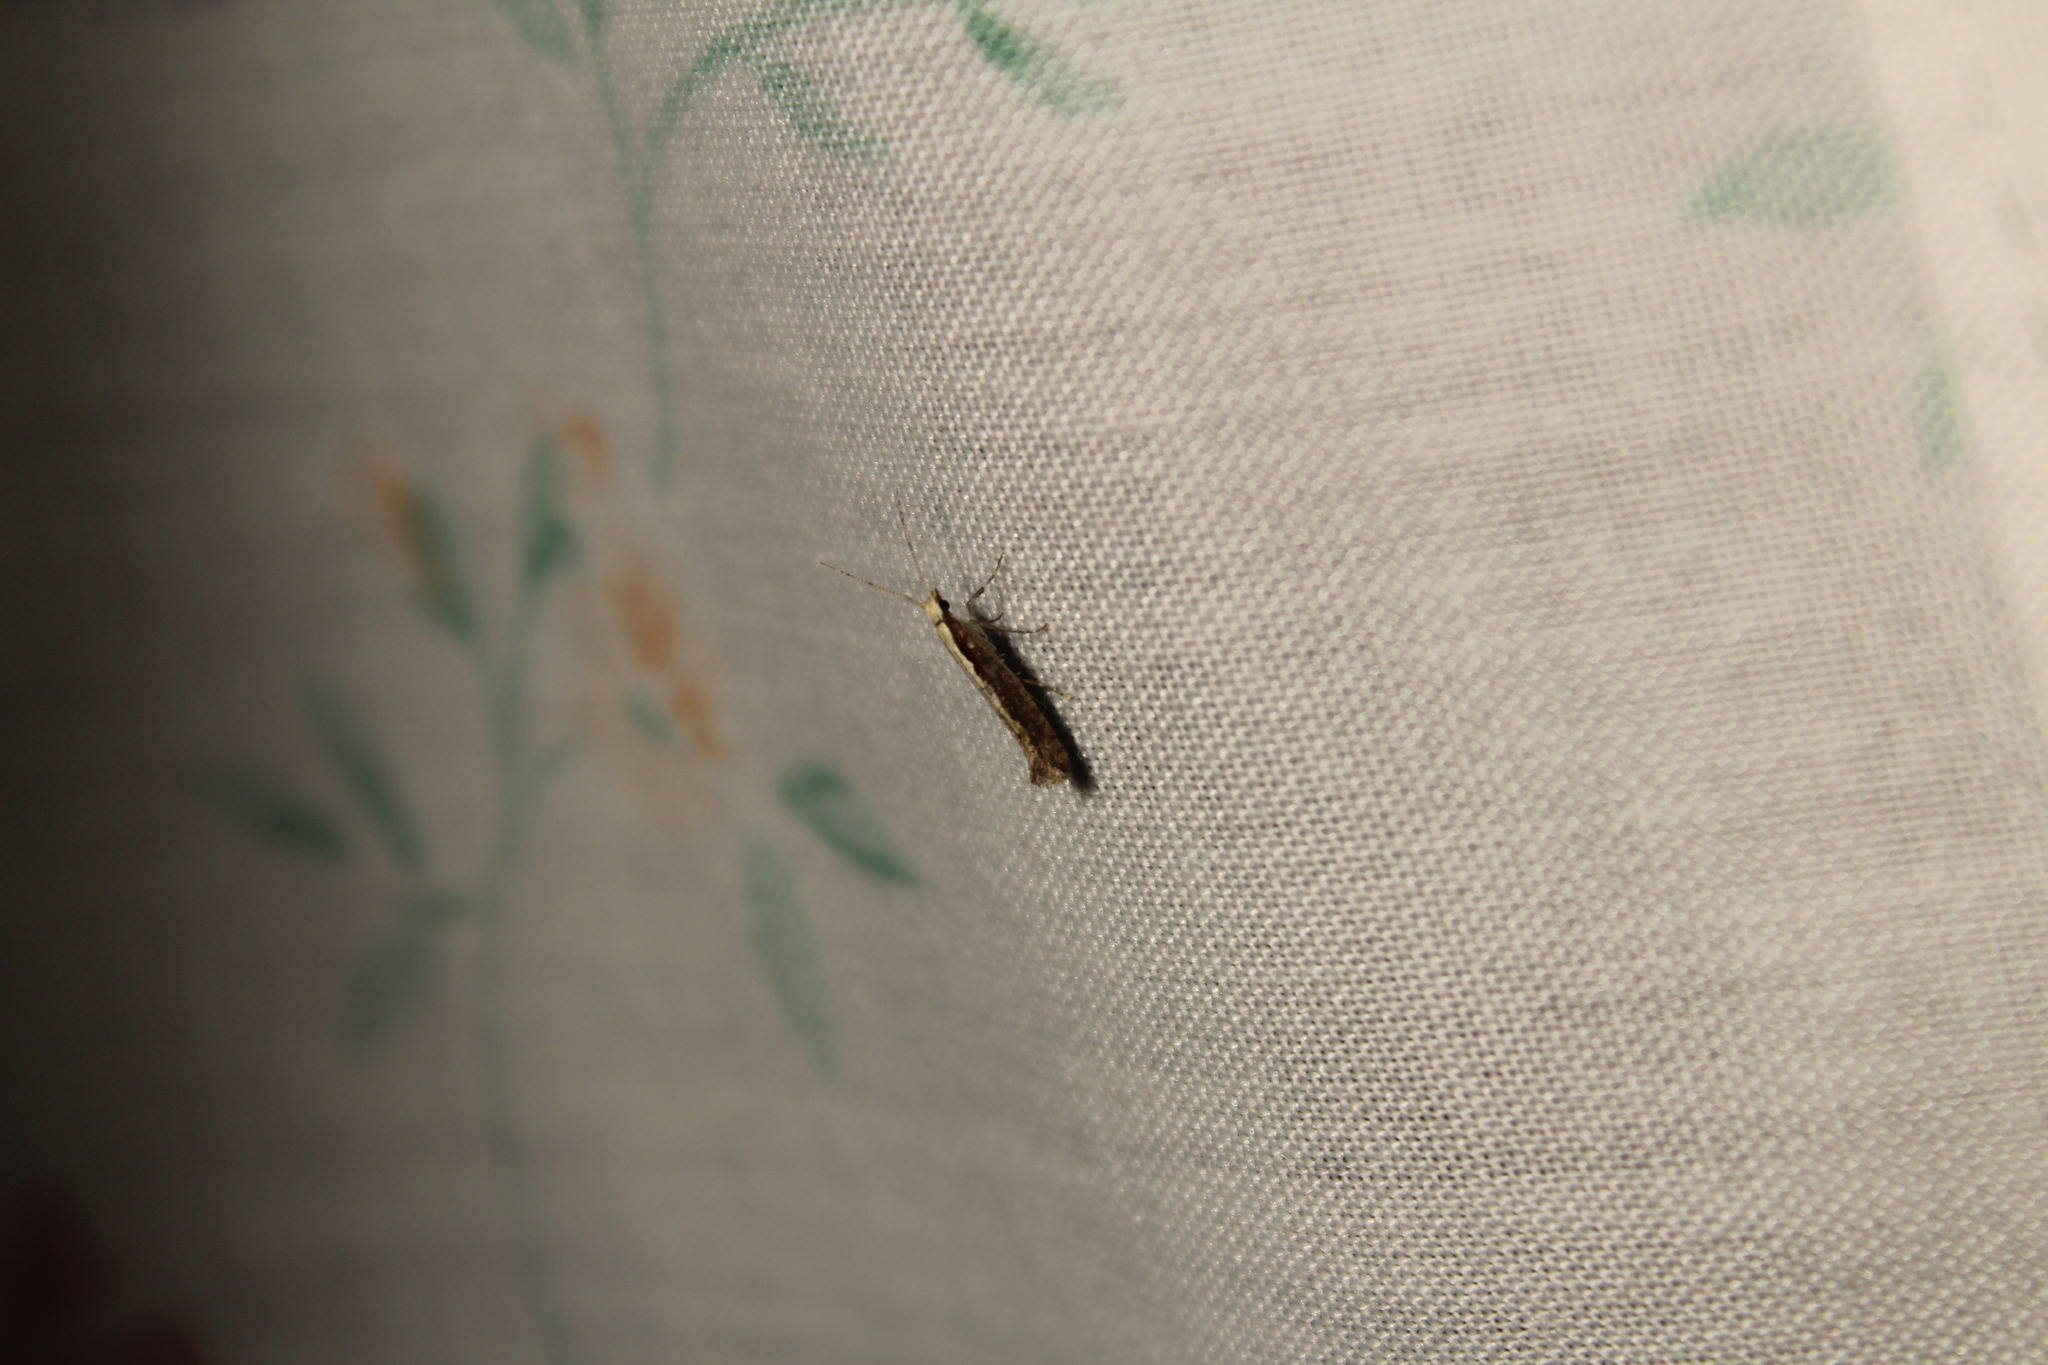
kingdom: Animalia
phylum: Arthropoda
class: Insecta
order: Lepidoptera
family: Plutellidae
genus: Plutella
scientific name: Plutella xylostella
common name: Diamond-back moth
